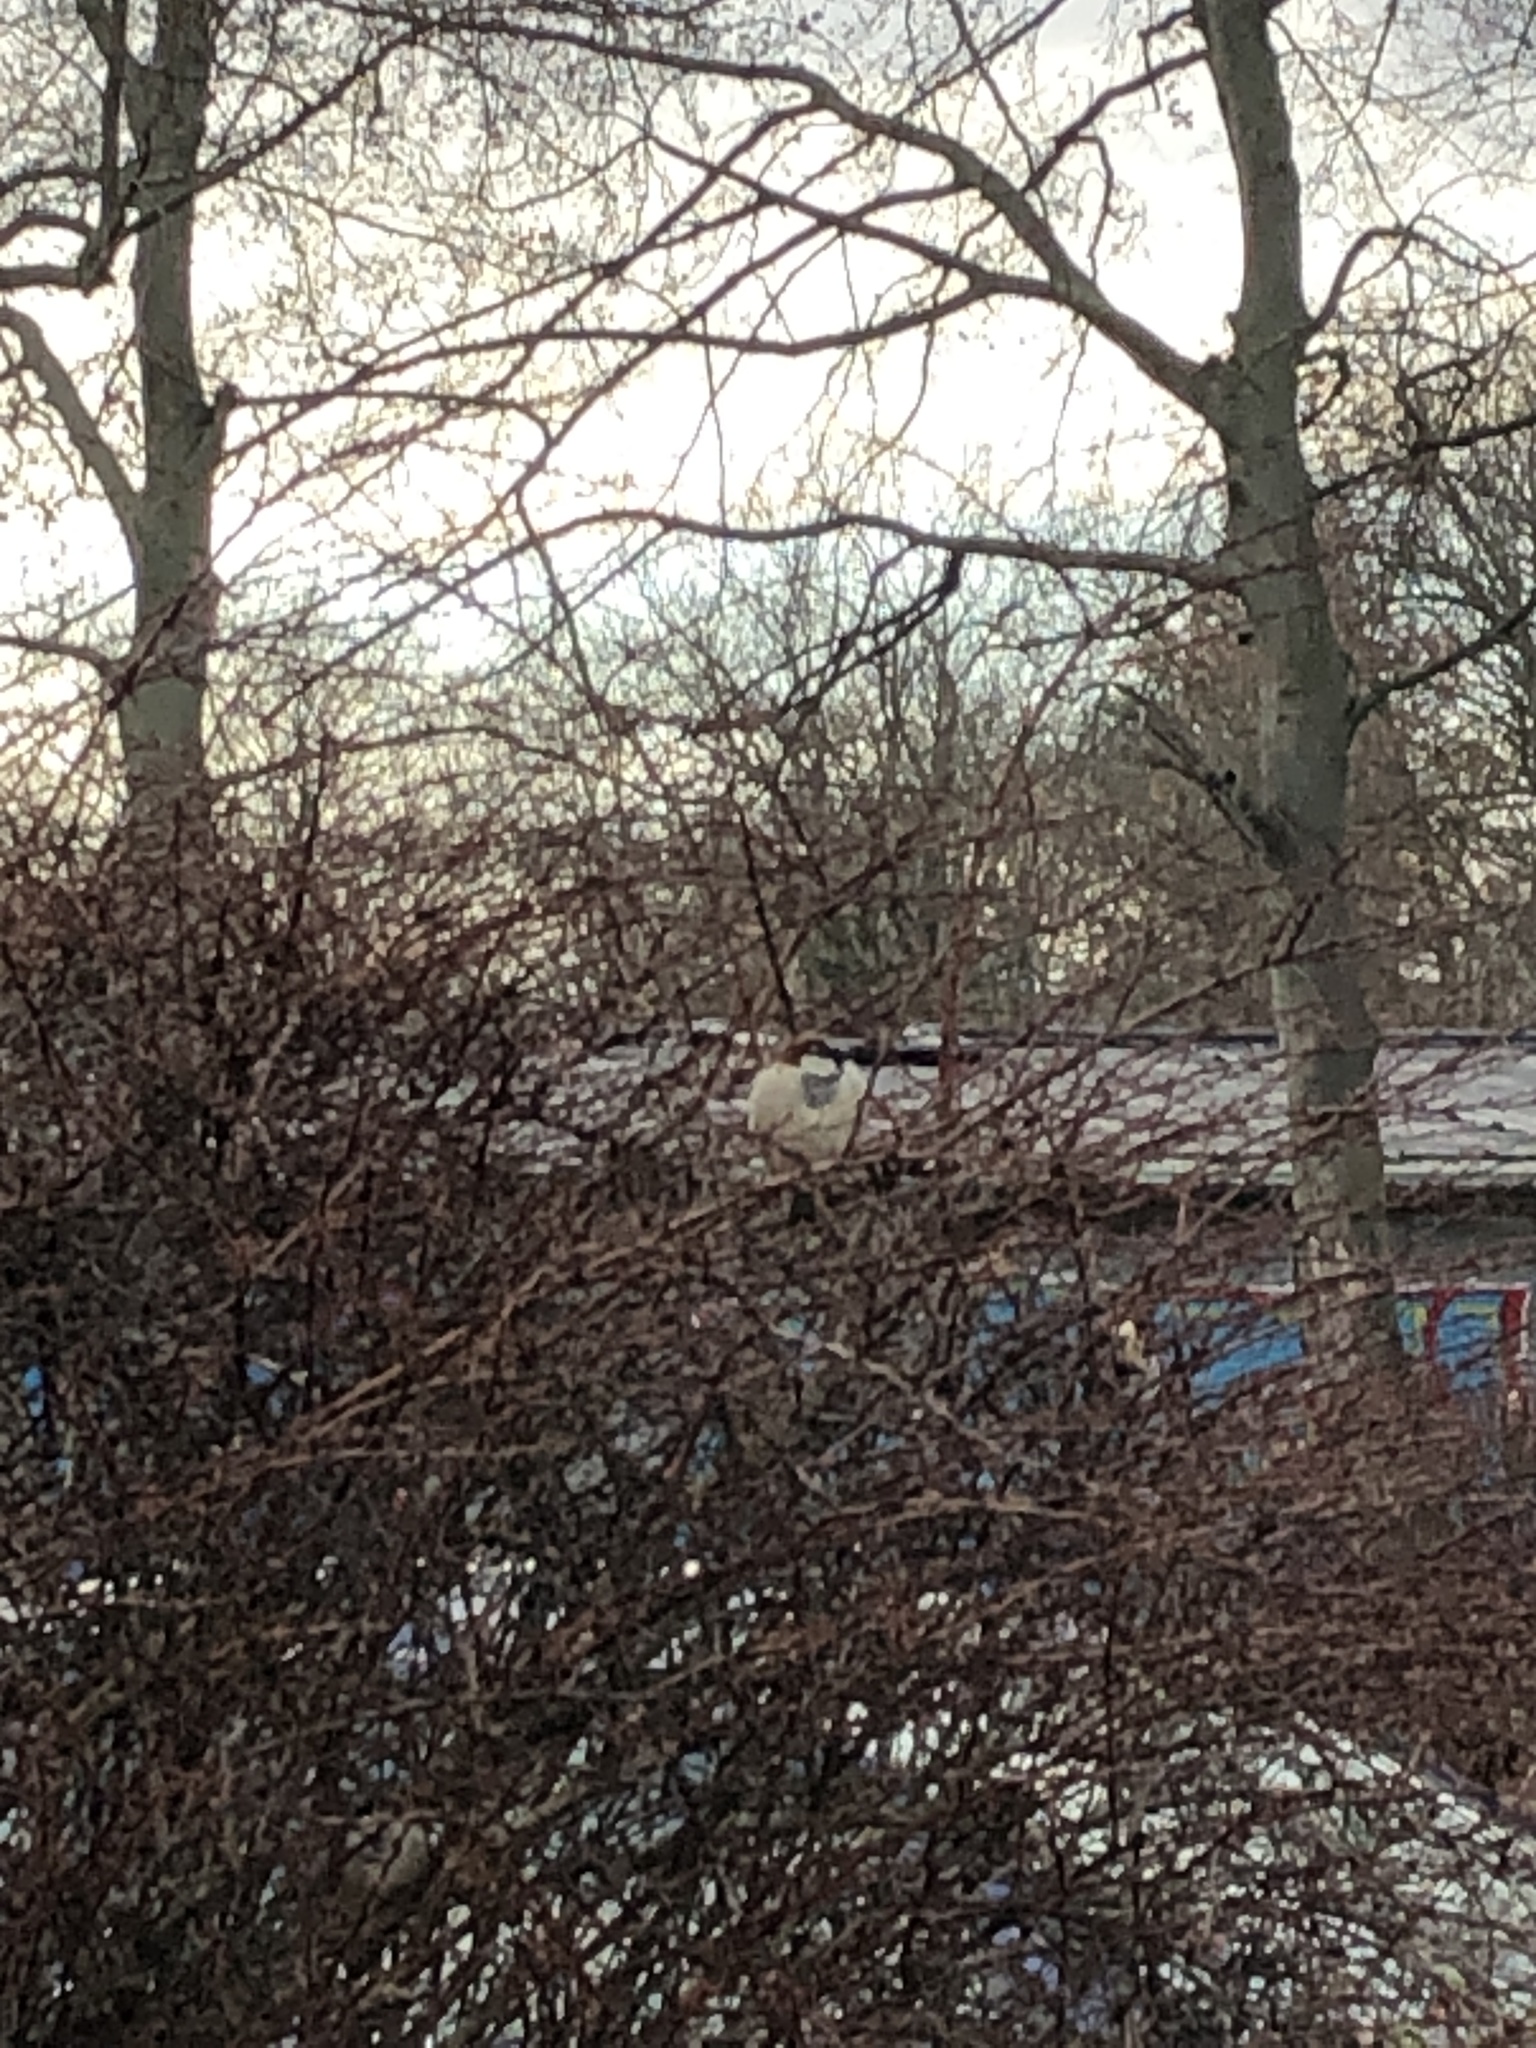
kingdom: Animalia
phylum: Chordata
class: Aves
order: Passeriformes
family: Passeridae
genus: Passer
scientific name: Passer domesticus
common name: House sparrow
